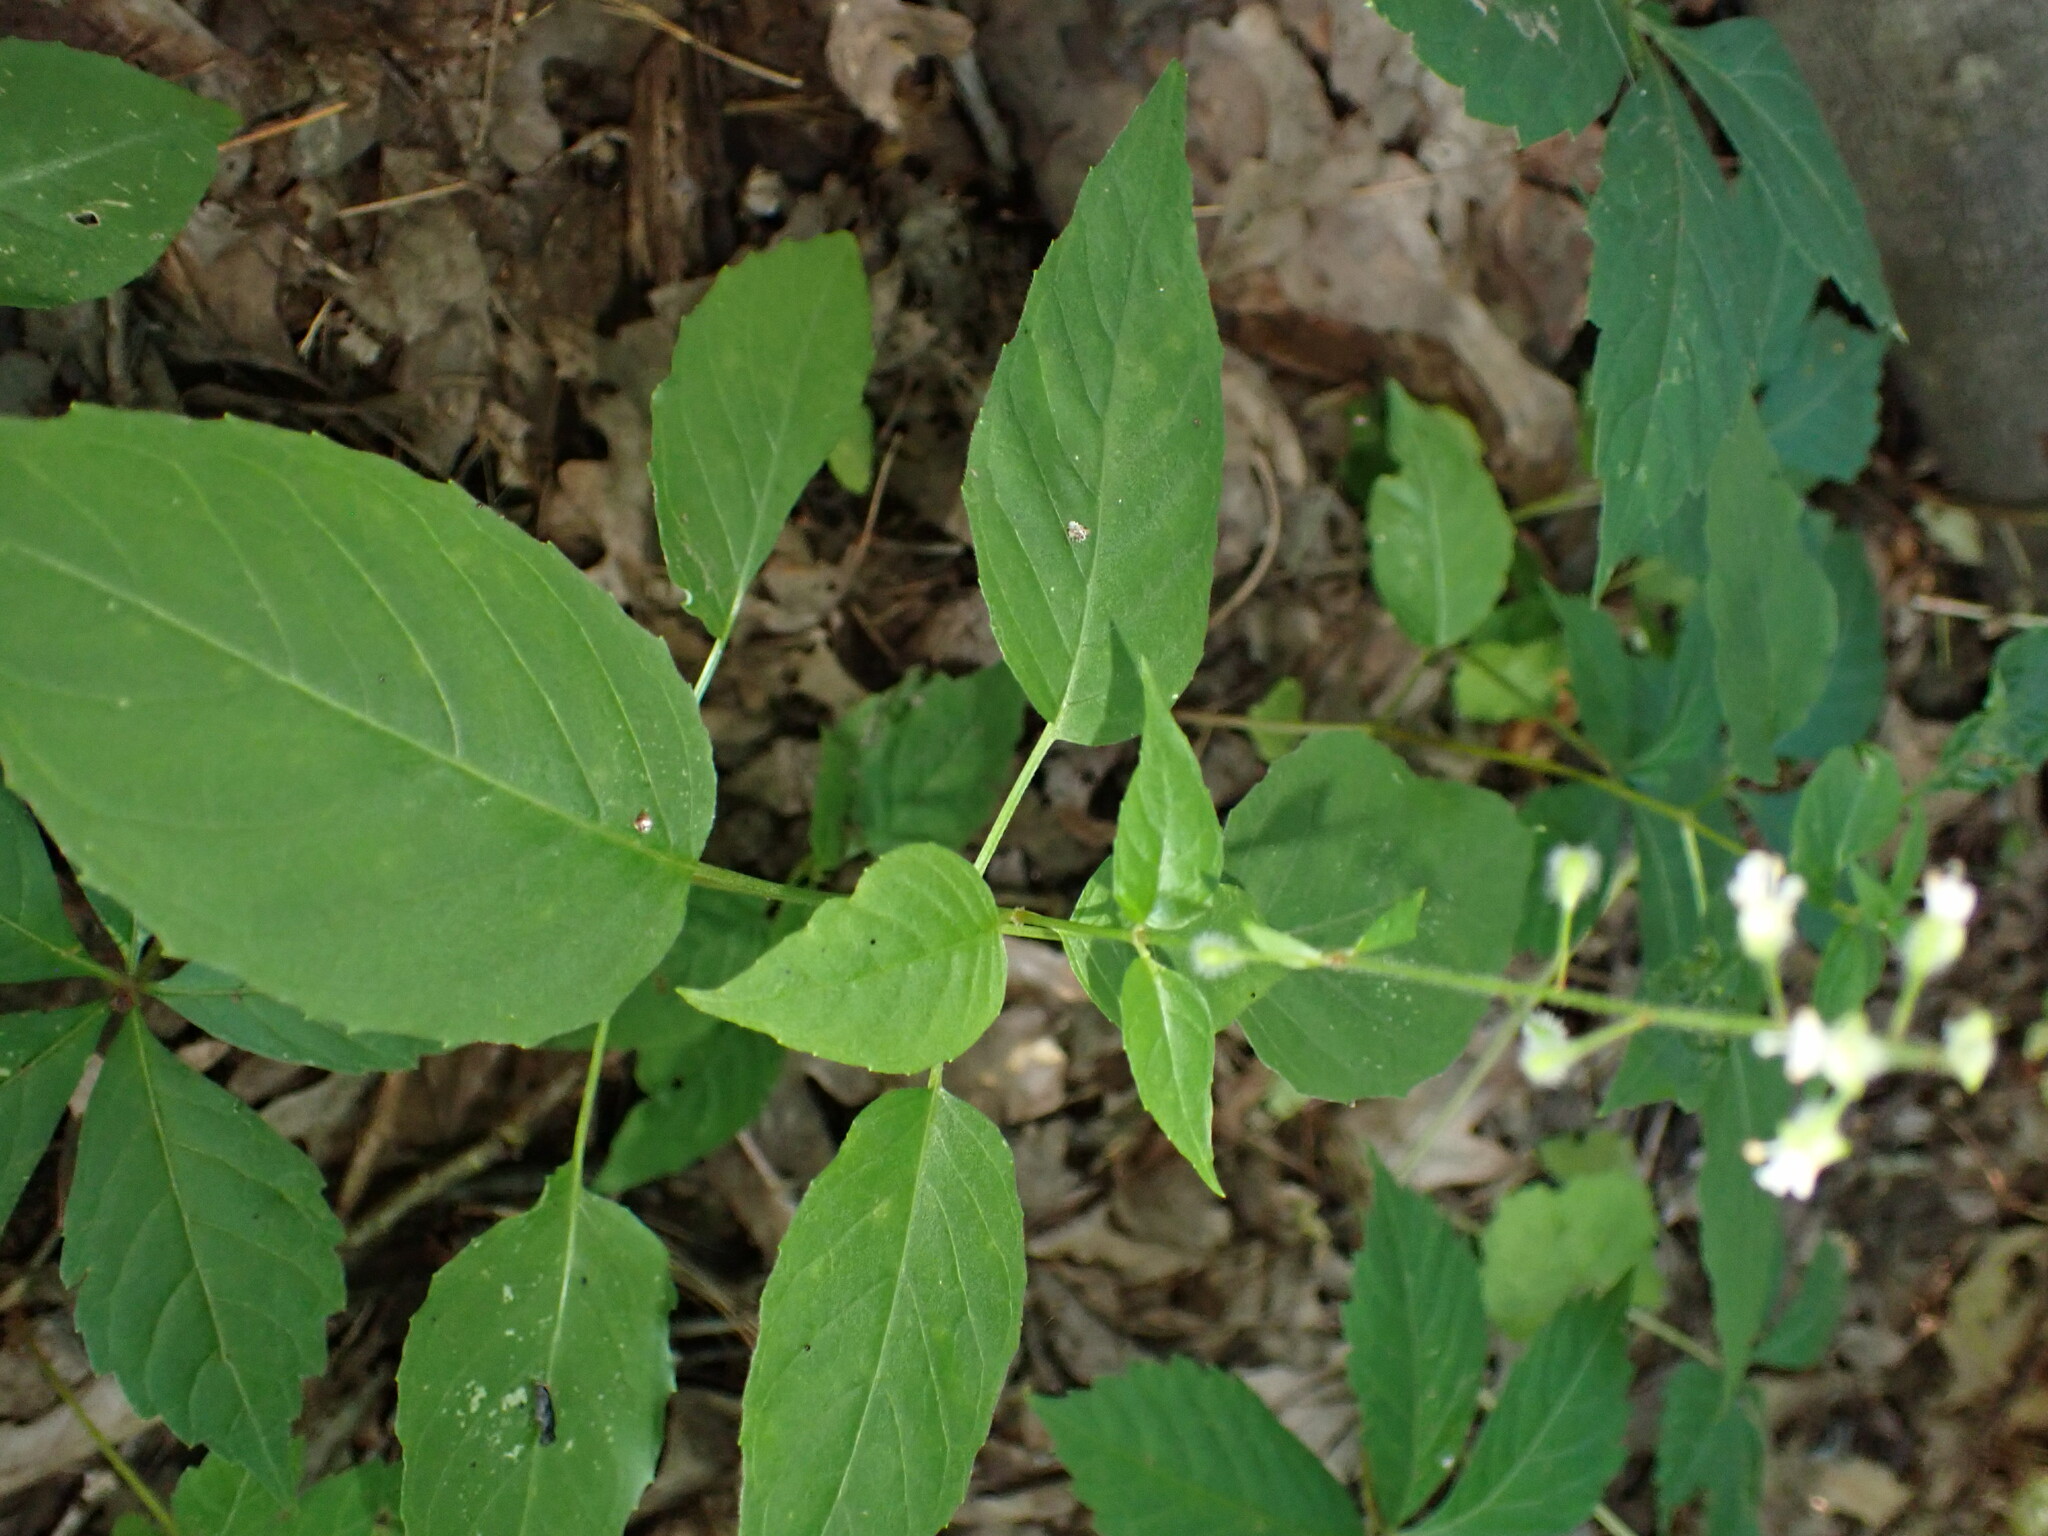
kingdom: Plantae
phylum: Tracheophyta
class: Magnoliopsida
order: Myrtales
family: Onagraceae
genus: Circaea
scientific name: Circaea canadensis
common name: Broad-leaved enchanter's nightshade
